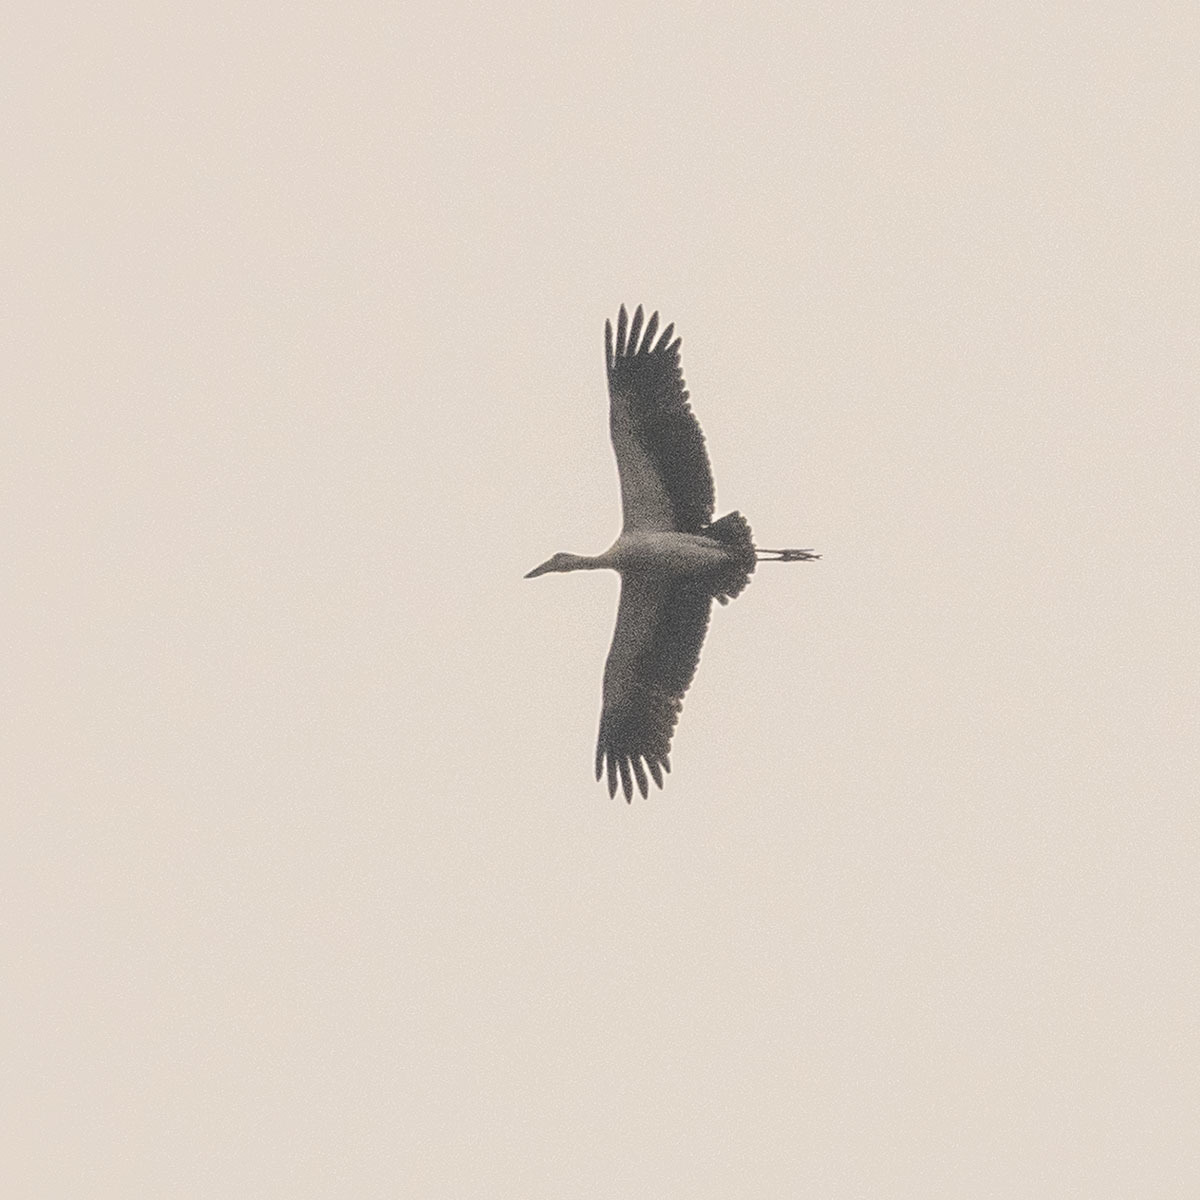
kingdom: Animalia
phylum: Chordata
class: Aves
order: Ciconiiformes
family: Ciconiidae
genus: Anastomus
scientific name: Anastomus oscitans
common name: Asian openbill
